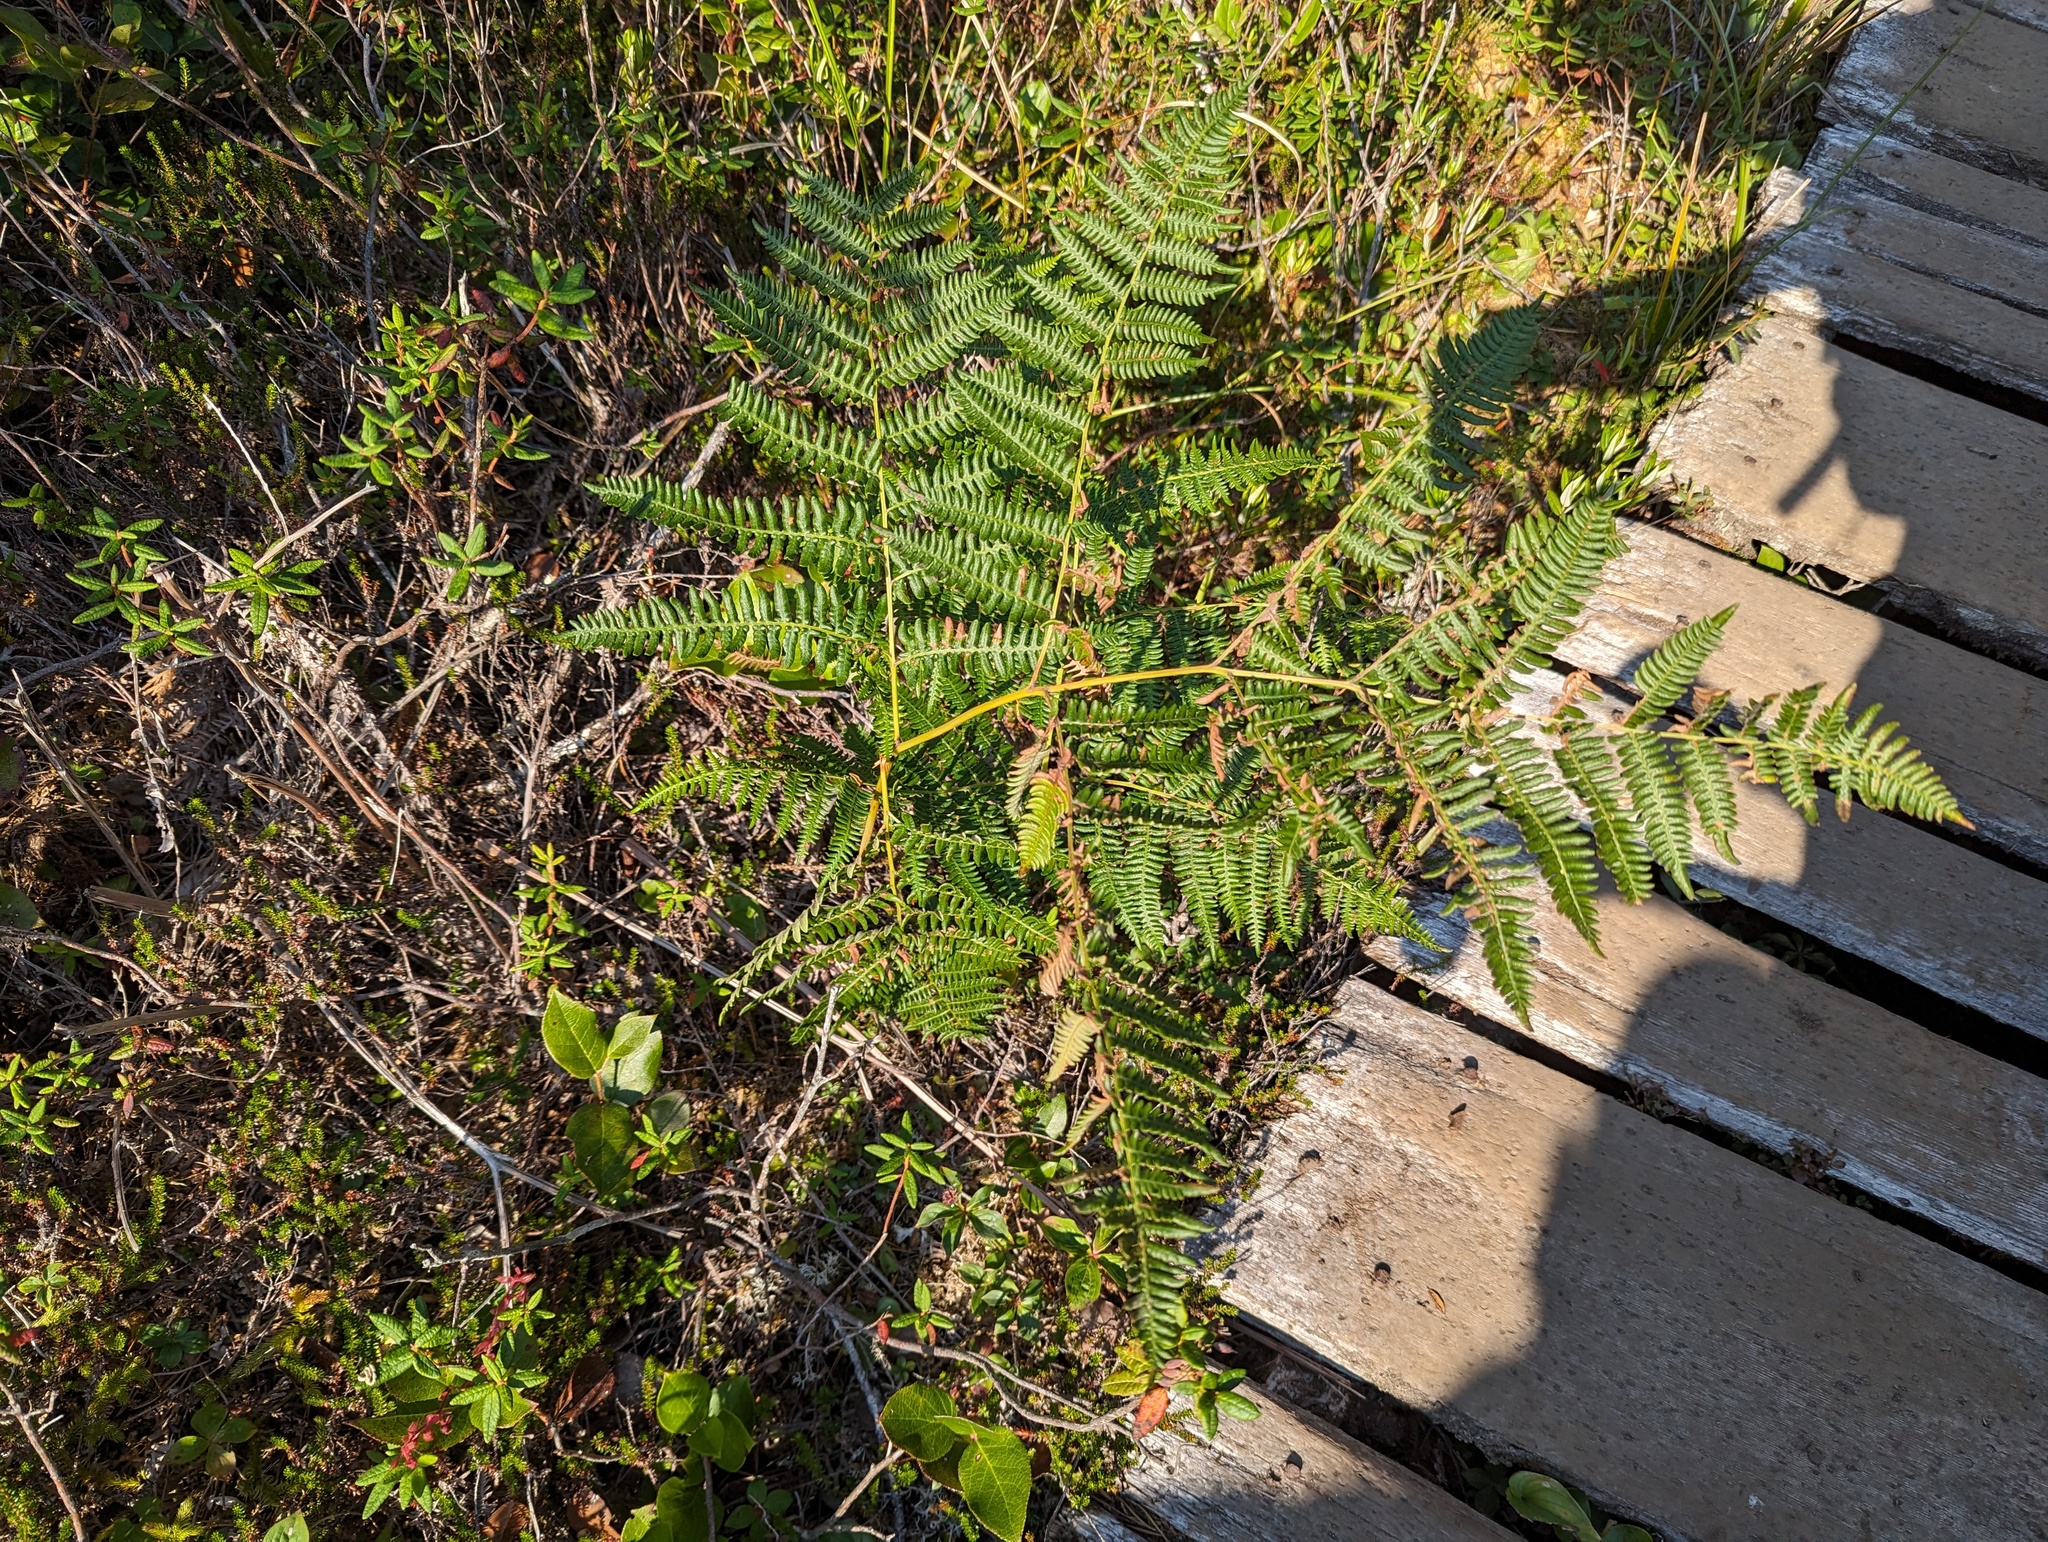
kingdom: Plantae
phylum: Tracheophyta
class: Polypodiopsida
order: Polypodiales
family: Dennstaedtiaceae
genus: Pteridium
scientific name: Pteridium aquilinum
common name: Bracken
